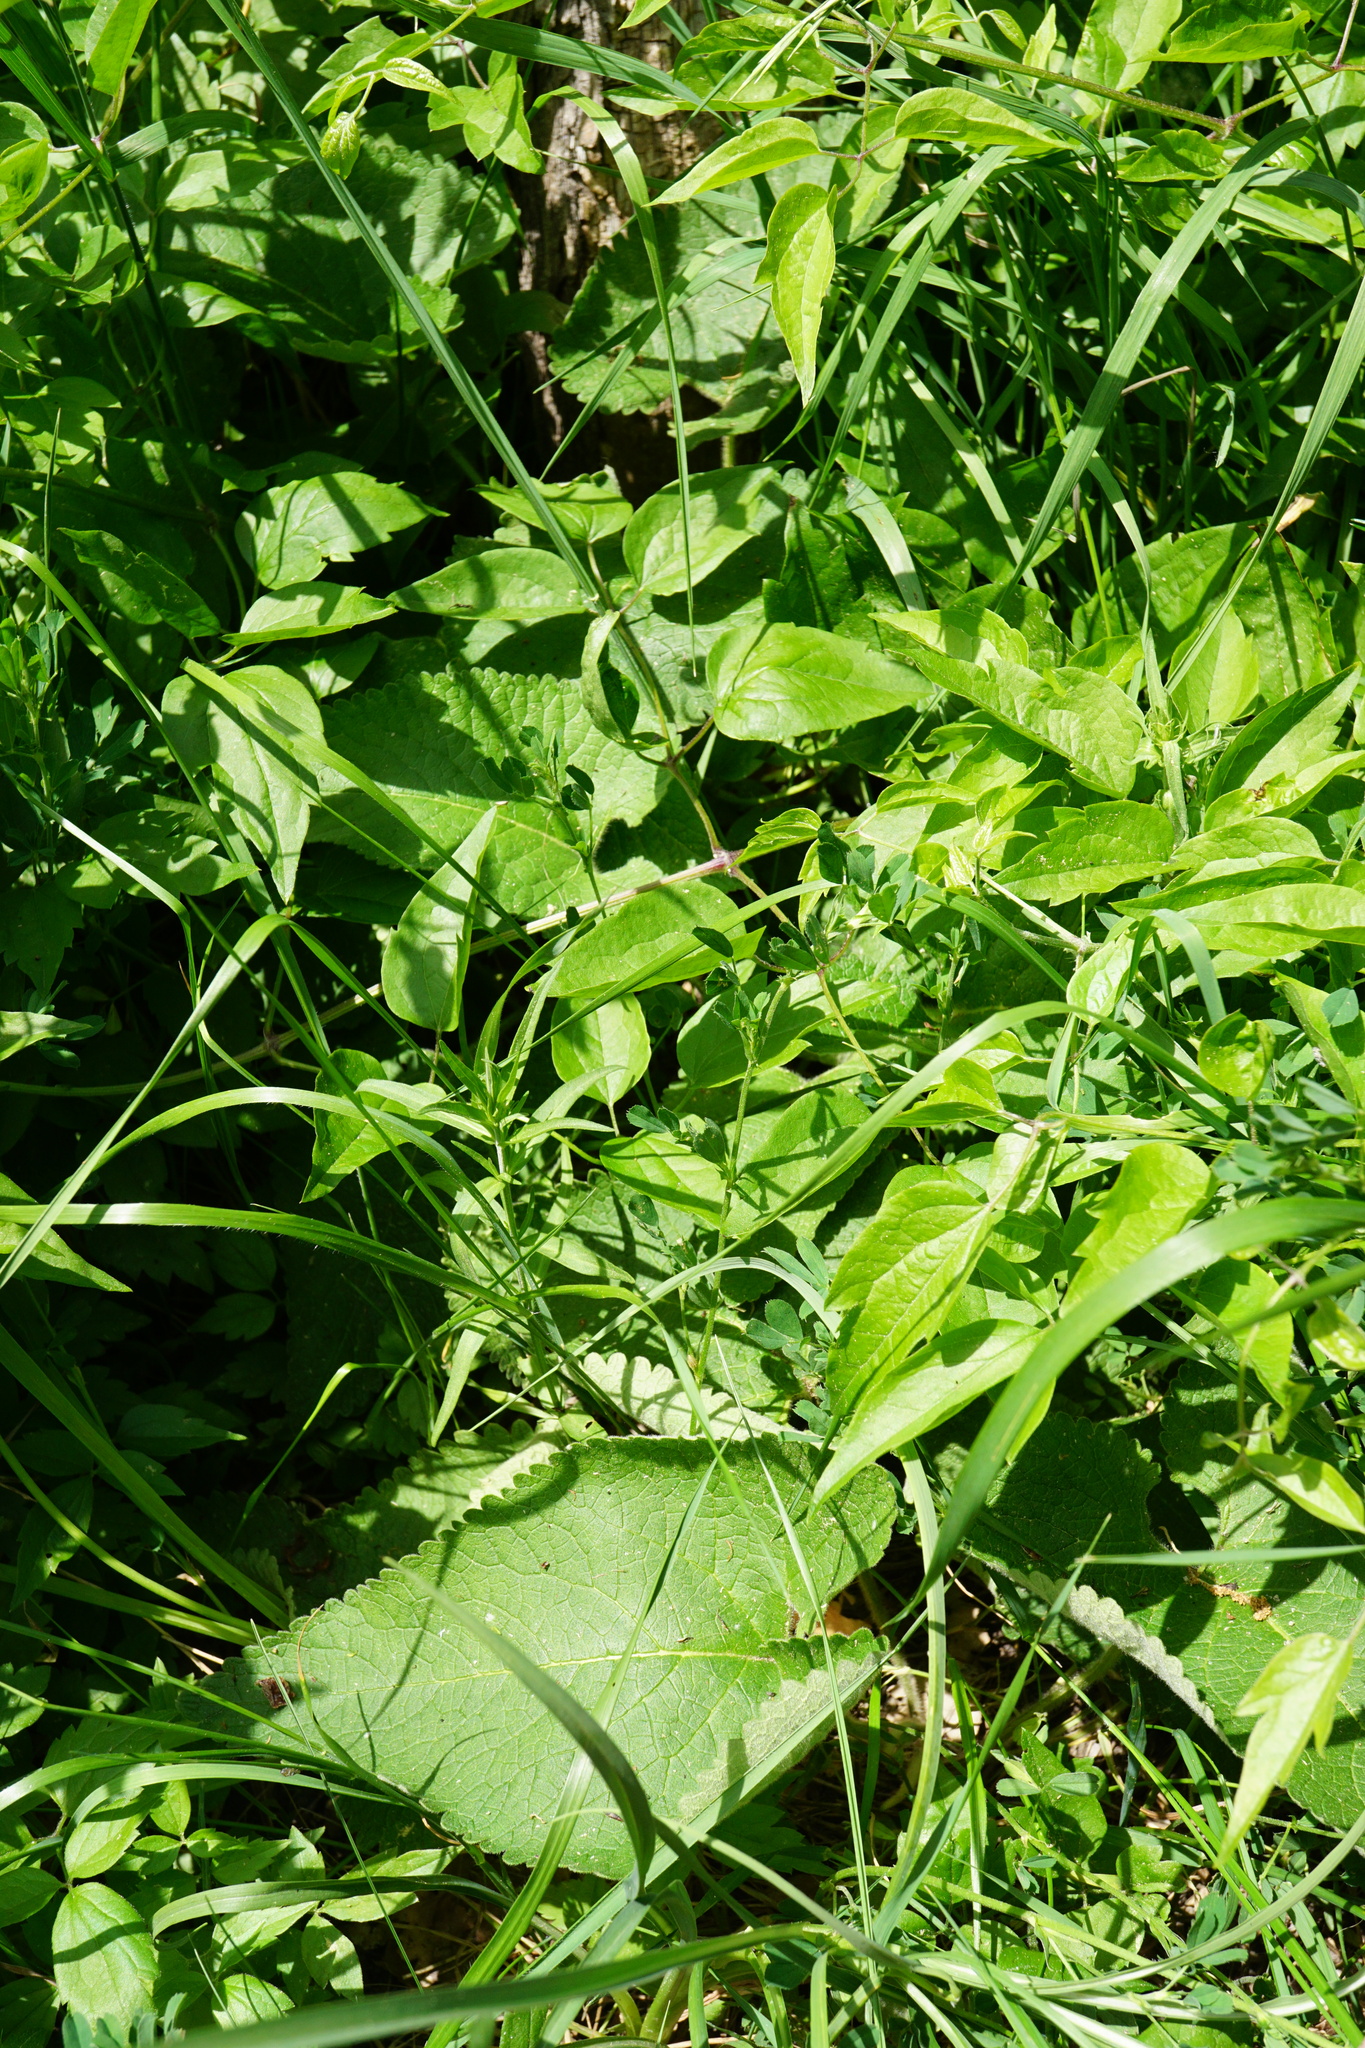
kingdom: Plantae
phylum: Tracheophyta
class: Magnoliopsida
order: Lamiales
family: Lamiaceae
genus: Phlomoides
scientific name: Phlomoides tuberosa
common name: Tuberous jerusalem sage
